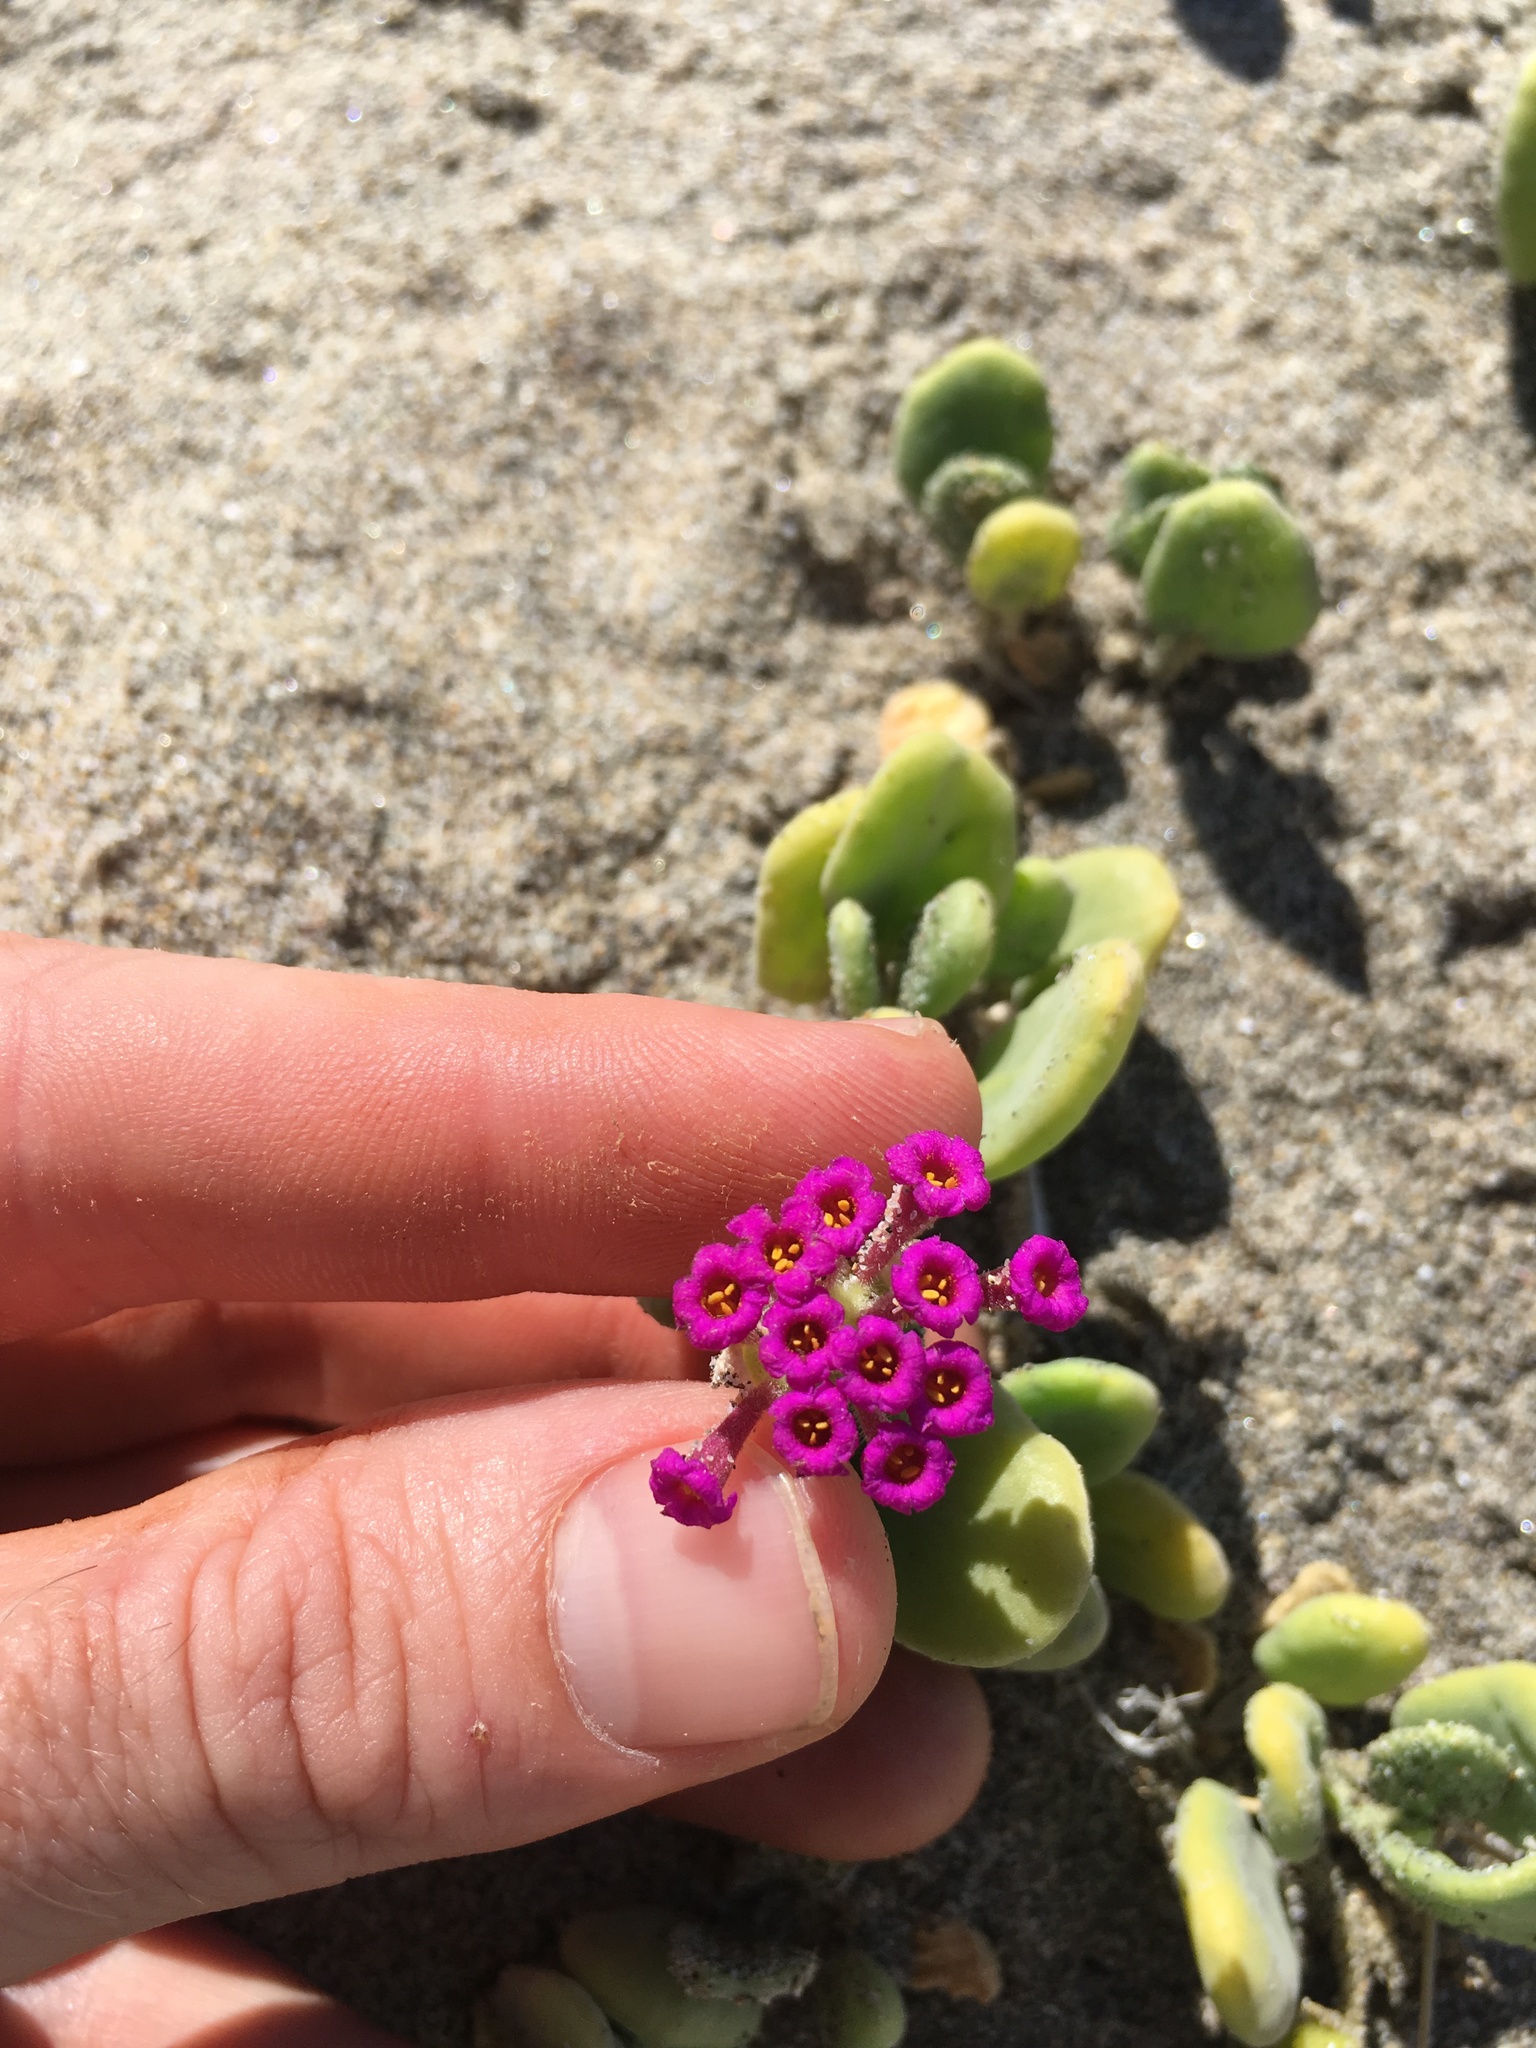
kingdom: Plantae
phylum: Tracheophyta
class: Magnoliopsida
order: Caryophyllales
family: Nyctaginaceae
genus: Abronia
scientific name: Abronia maritima
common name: Red sand-verbena
